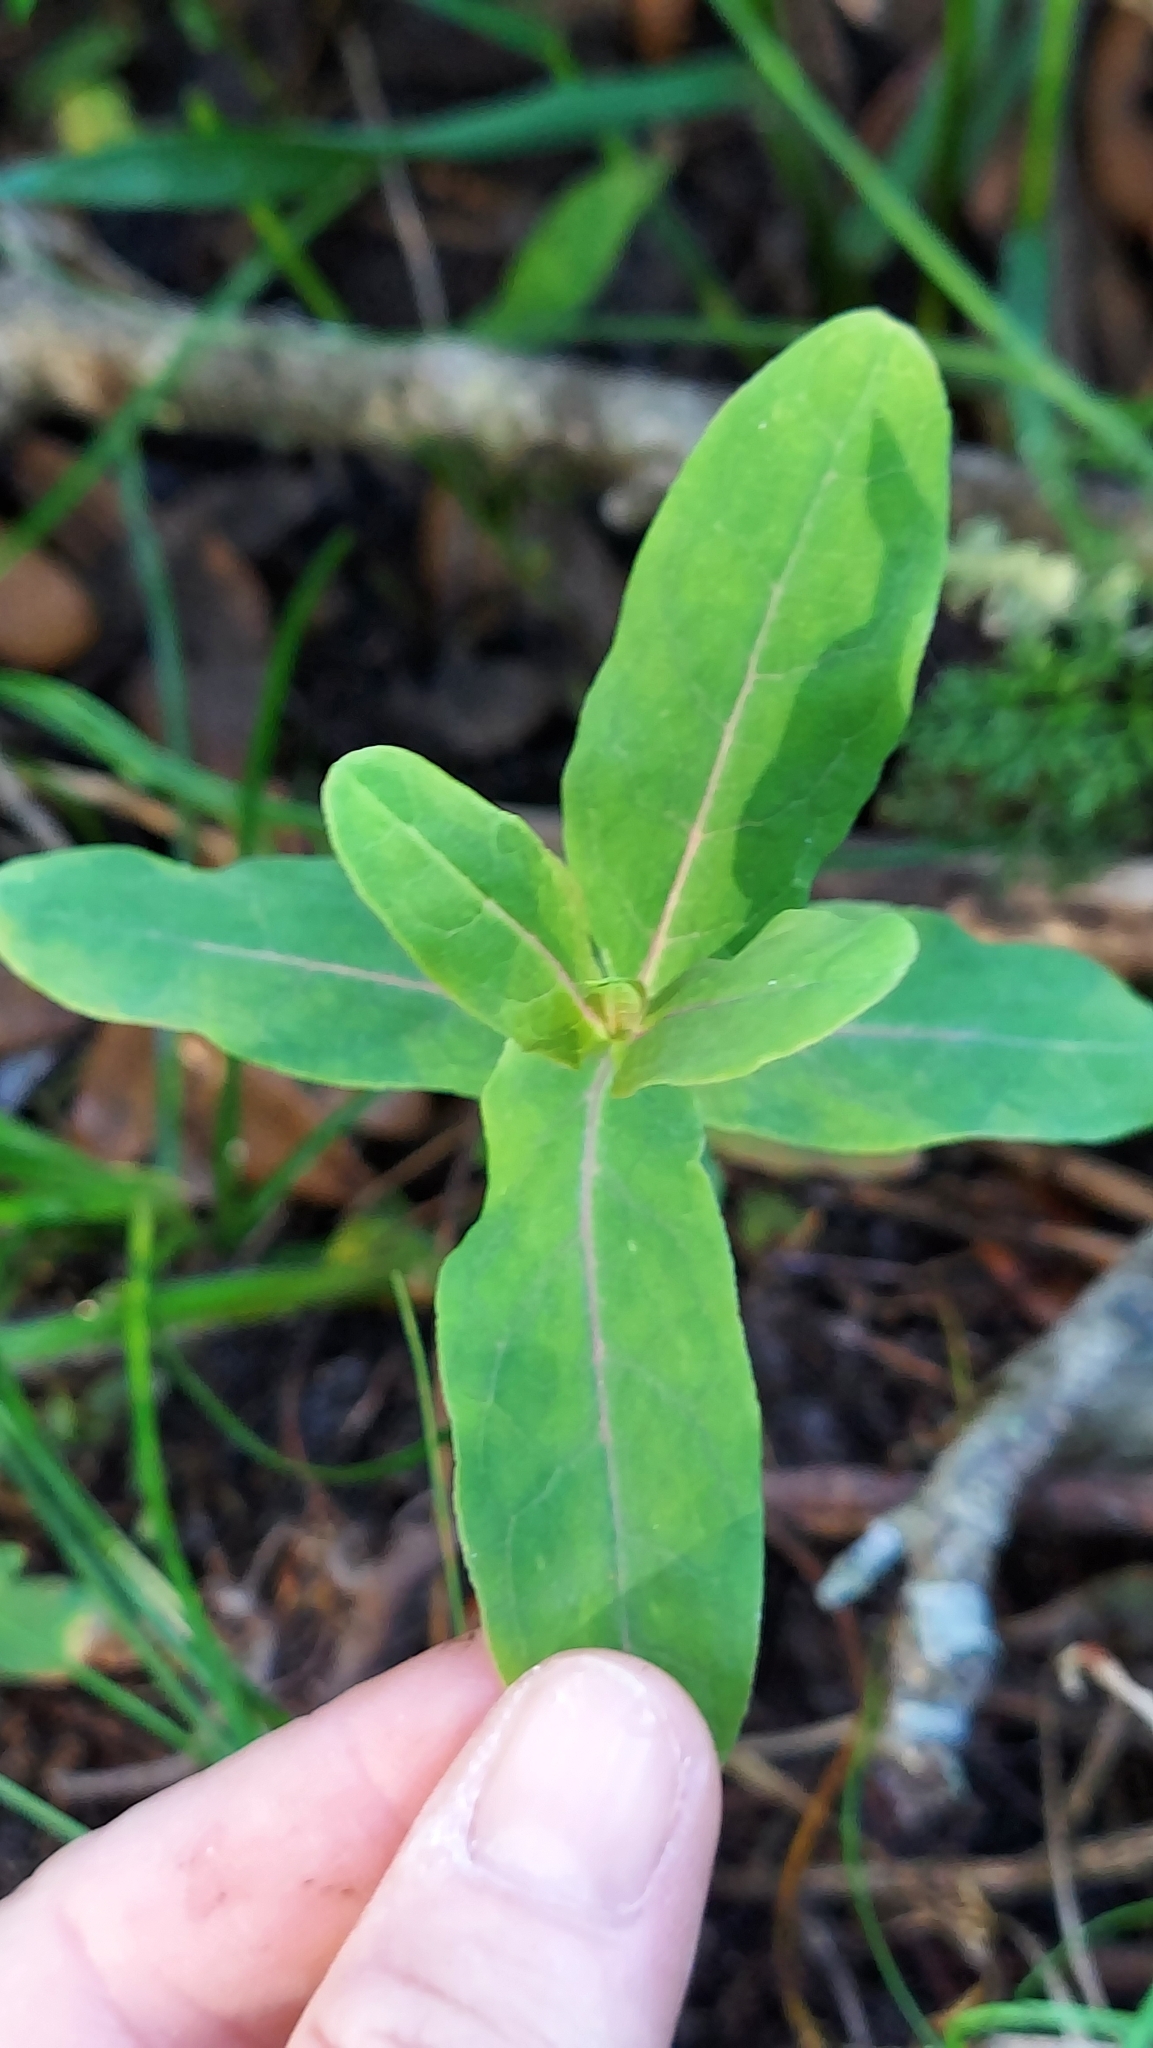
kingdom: Plantae
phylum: Tracheophyta
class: Magnoliopsida
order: Malpighiales
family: Hypericaceae
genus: Triadenum
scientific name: Triadenum virginicum
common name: Marsh st. john's-wort
